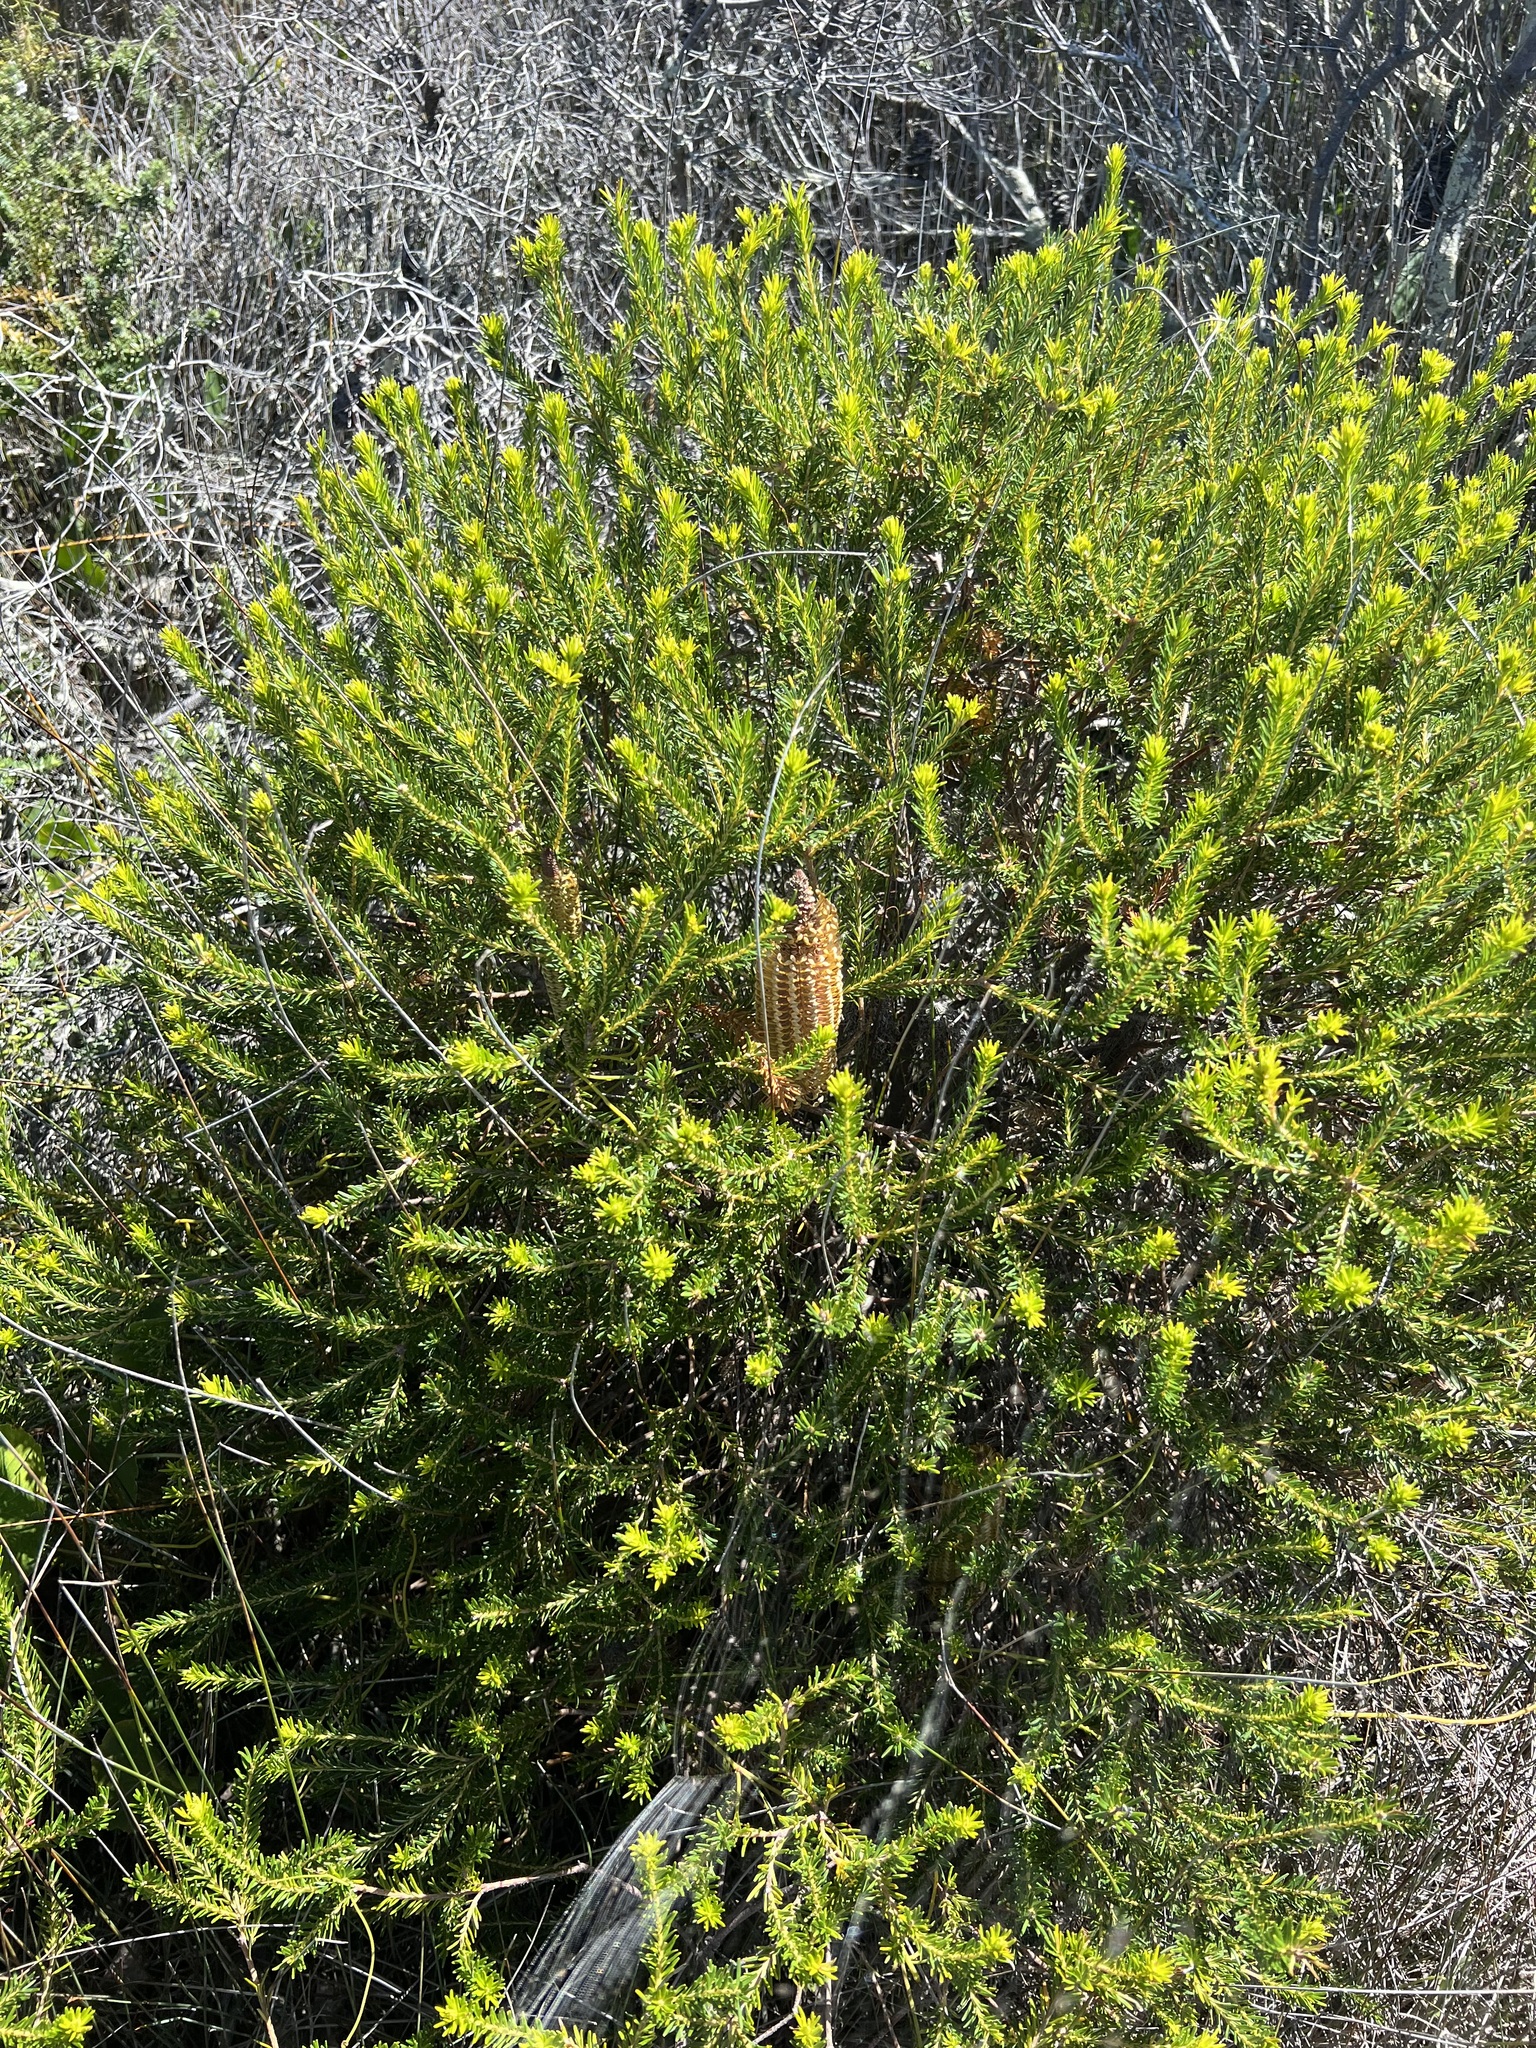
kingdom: Plantae
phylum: Tracheophyta
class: Magnoliopsida
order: Proteales
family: Proteaceae
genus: Banksia
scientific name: Banksia ericifolia
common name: Heath-leaf banksia
